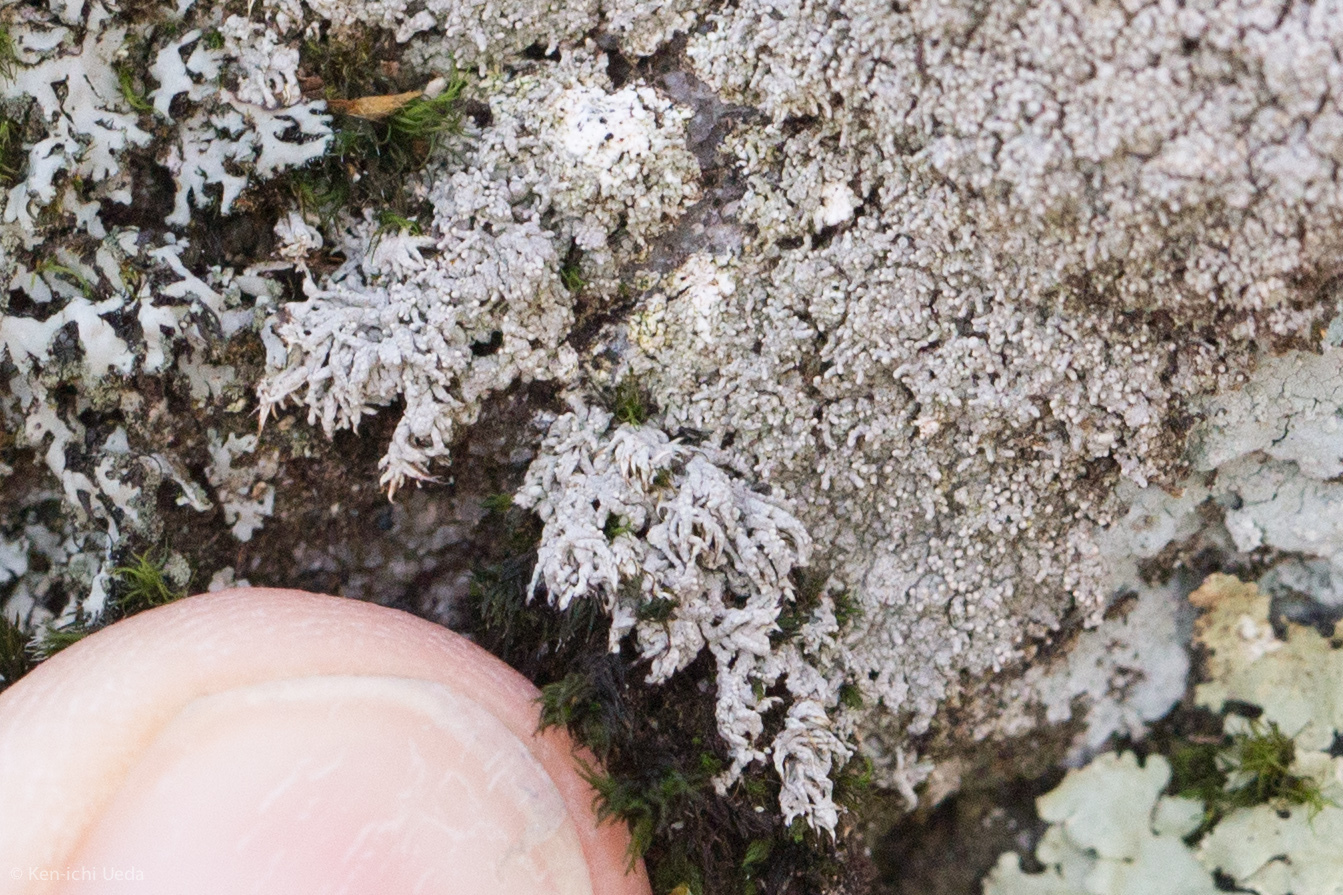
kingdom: Fungi
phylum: Ascomycota
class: Lecanoromycetes
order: Pertusariales
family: Ochrolechiaceae
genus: Ochrolechia
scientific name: Ochrolechia yasudae
